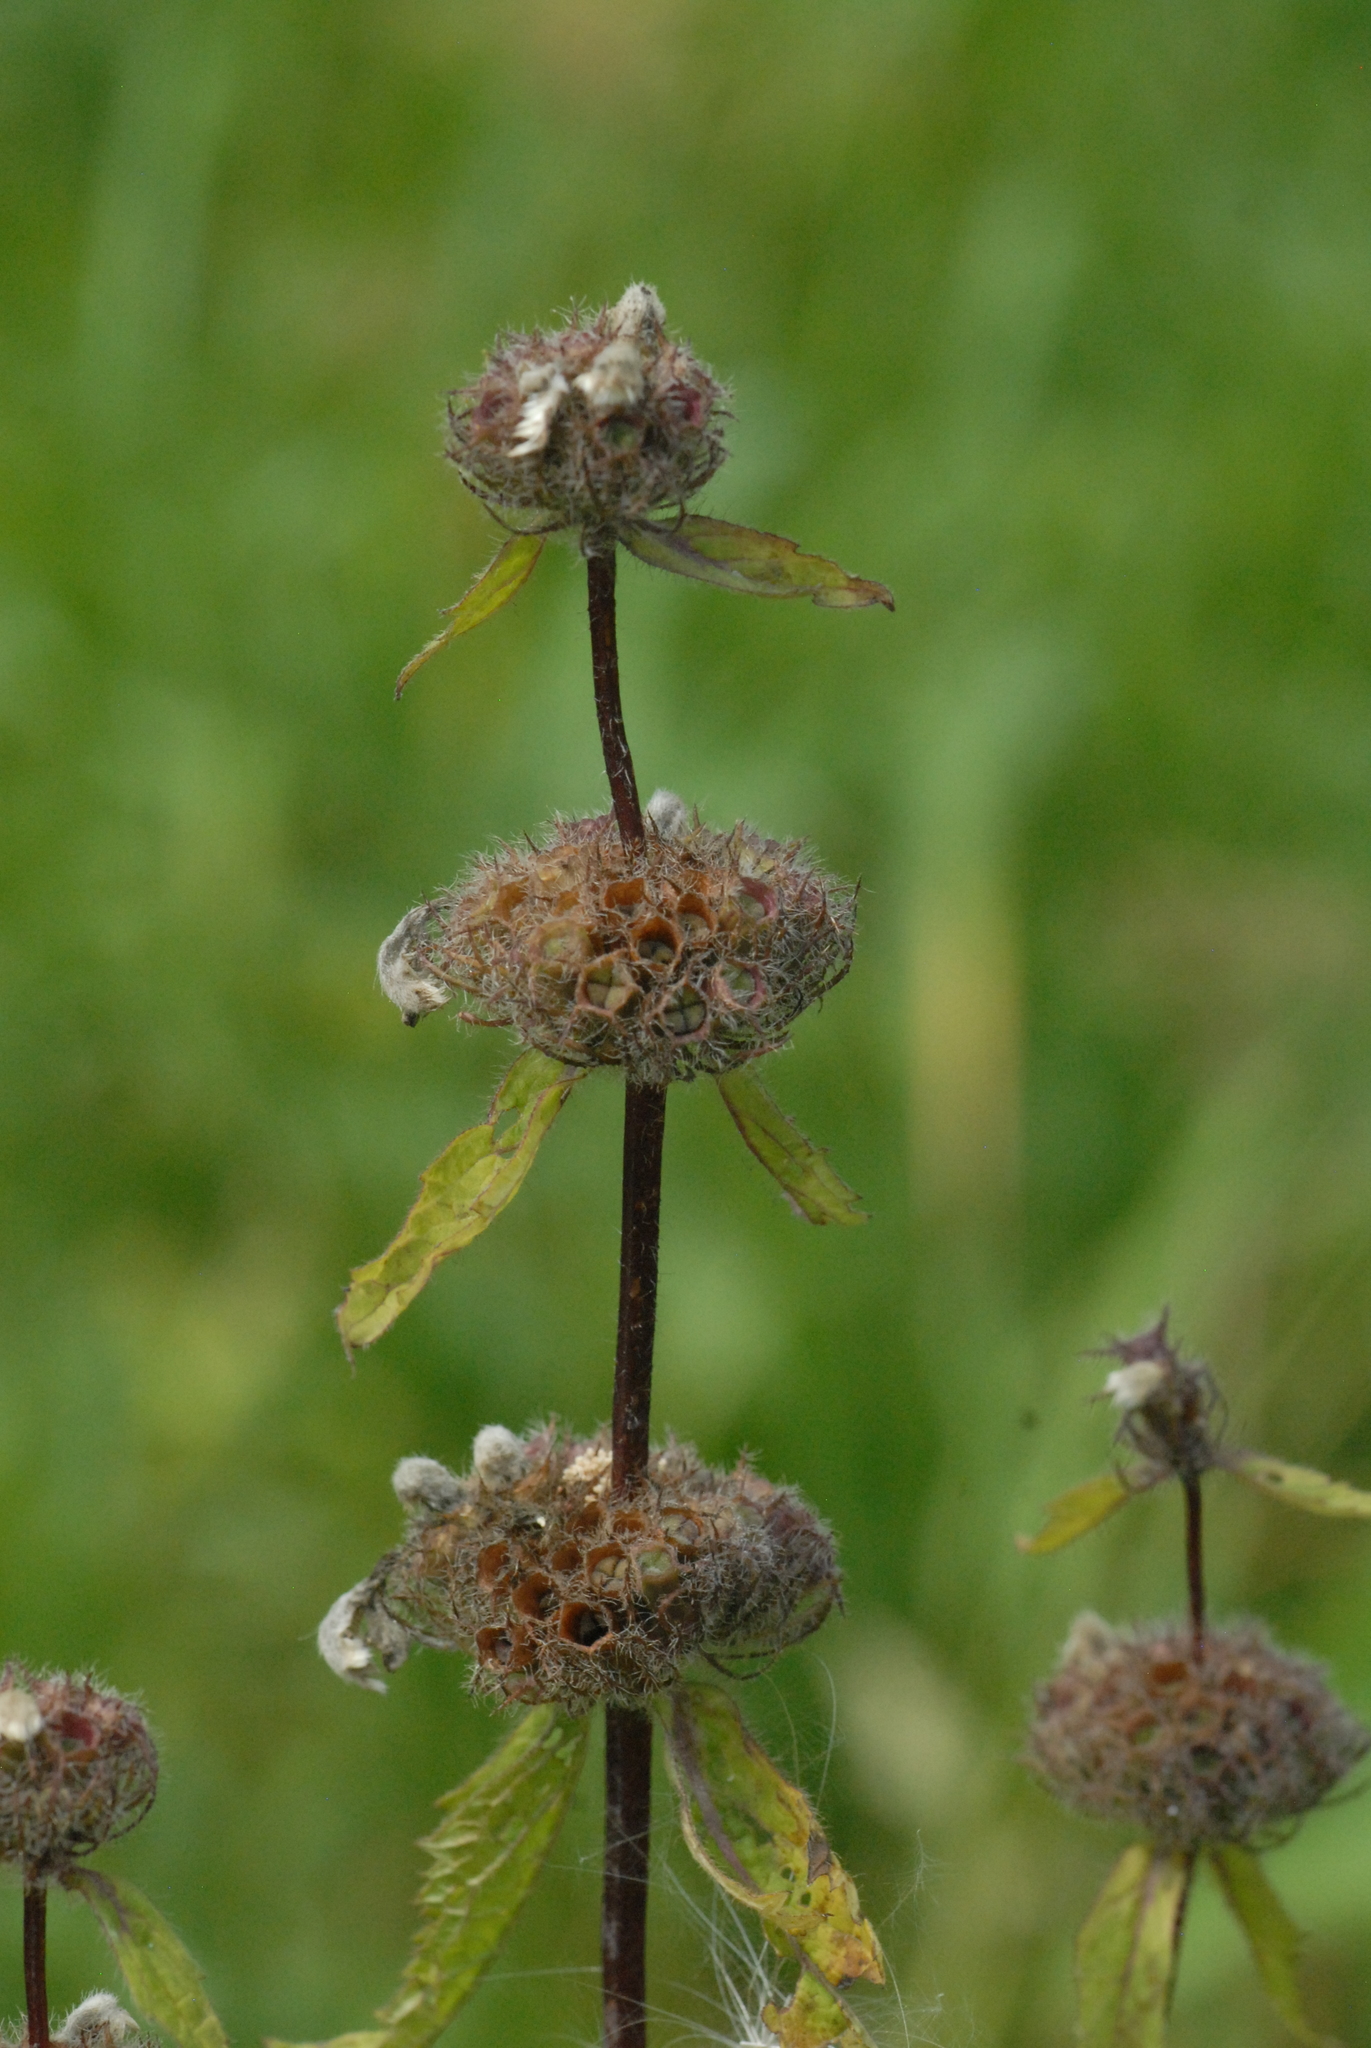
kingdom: Plantae
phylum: Tracheophyta
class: Magnoliopsida
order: Lamiales
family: Lamiaceae
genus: Phlomoides
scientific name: Phlomoides tuberosa
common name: Tuberous jerusalem sage
